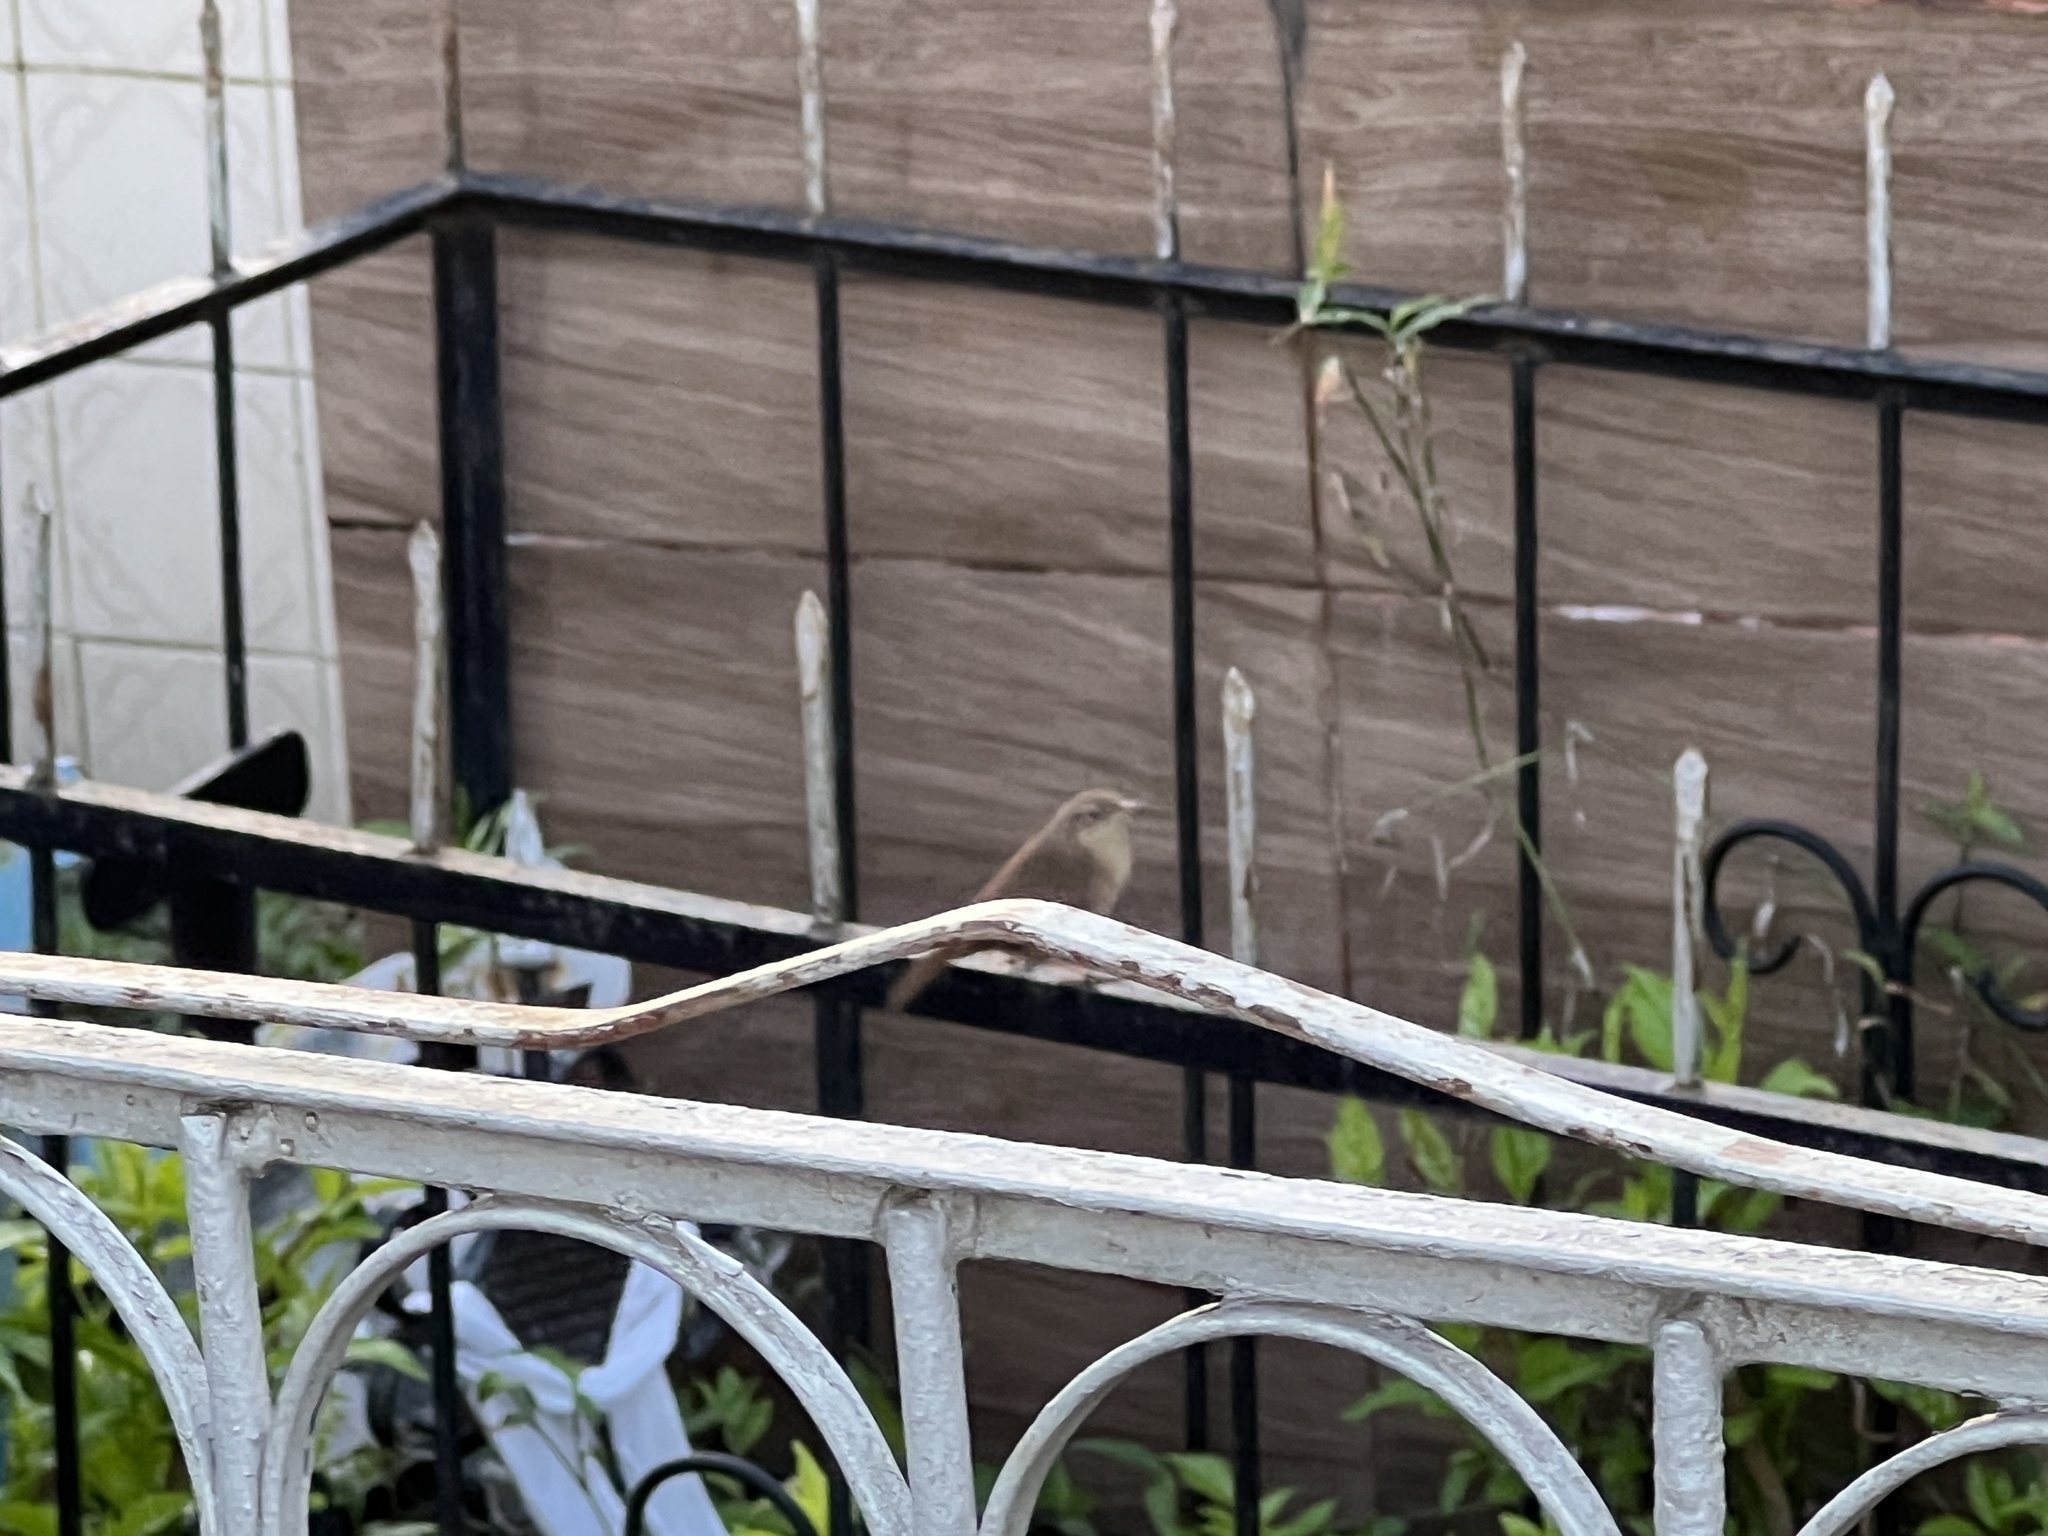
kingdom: Animalia
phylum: Chordata
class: Aves
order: Passeriformes
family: Troglodytidae
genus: Troglodytes
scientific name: Troglodytes aedon
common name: House wren
